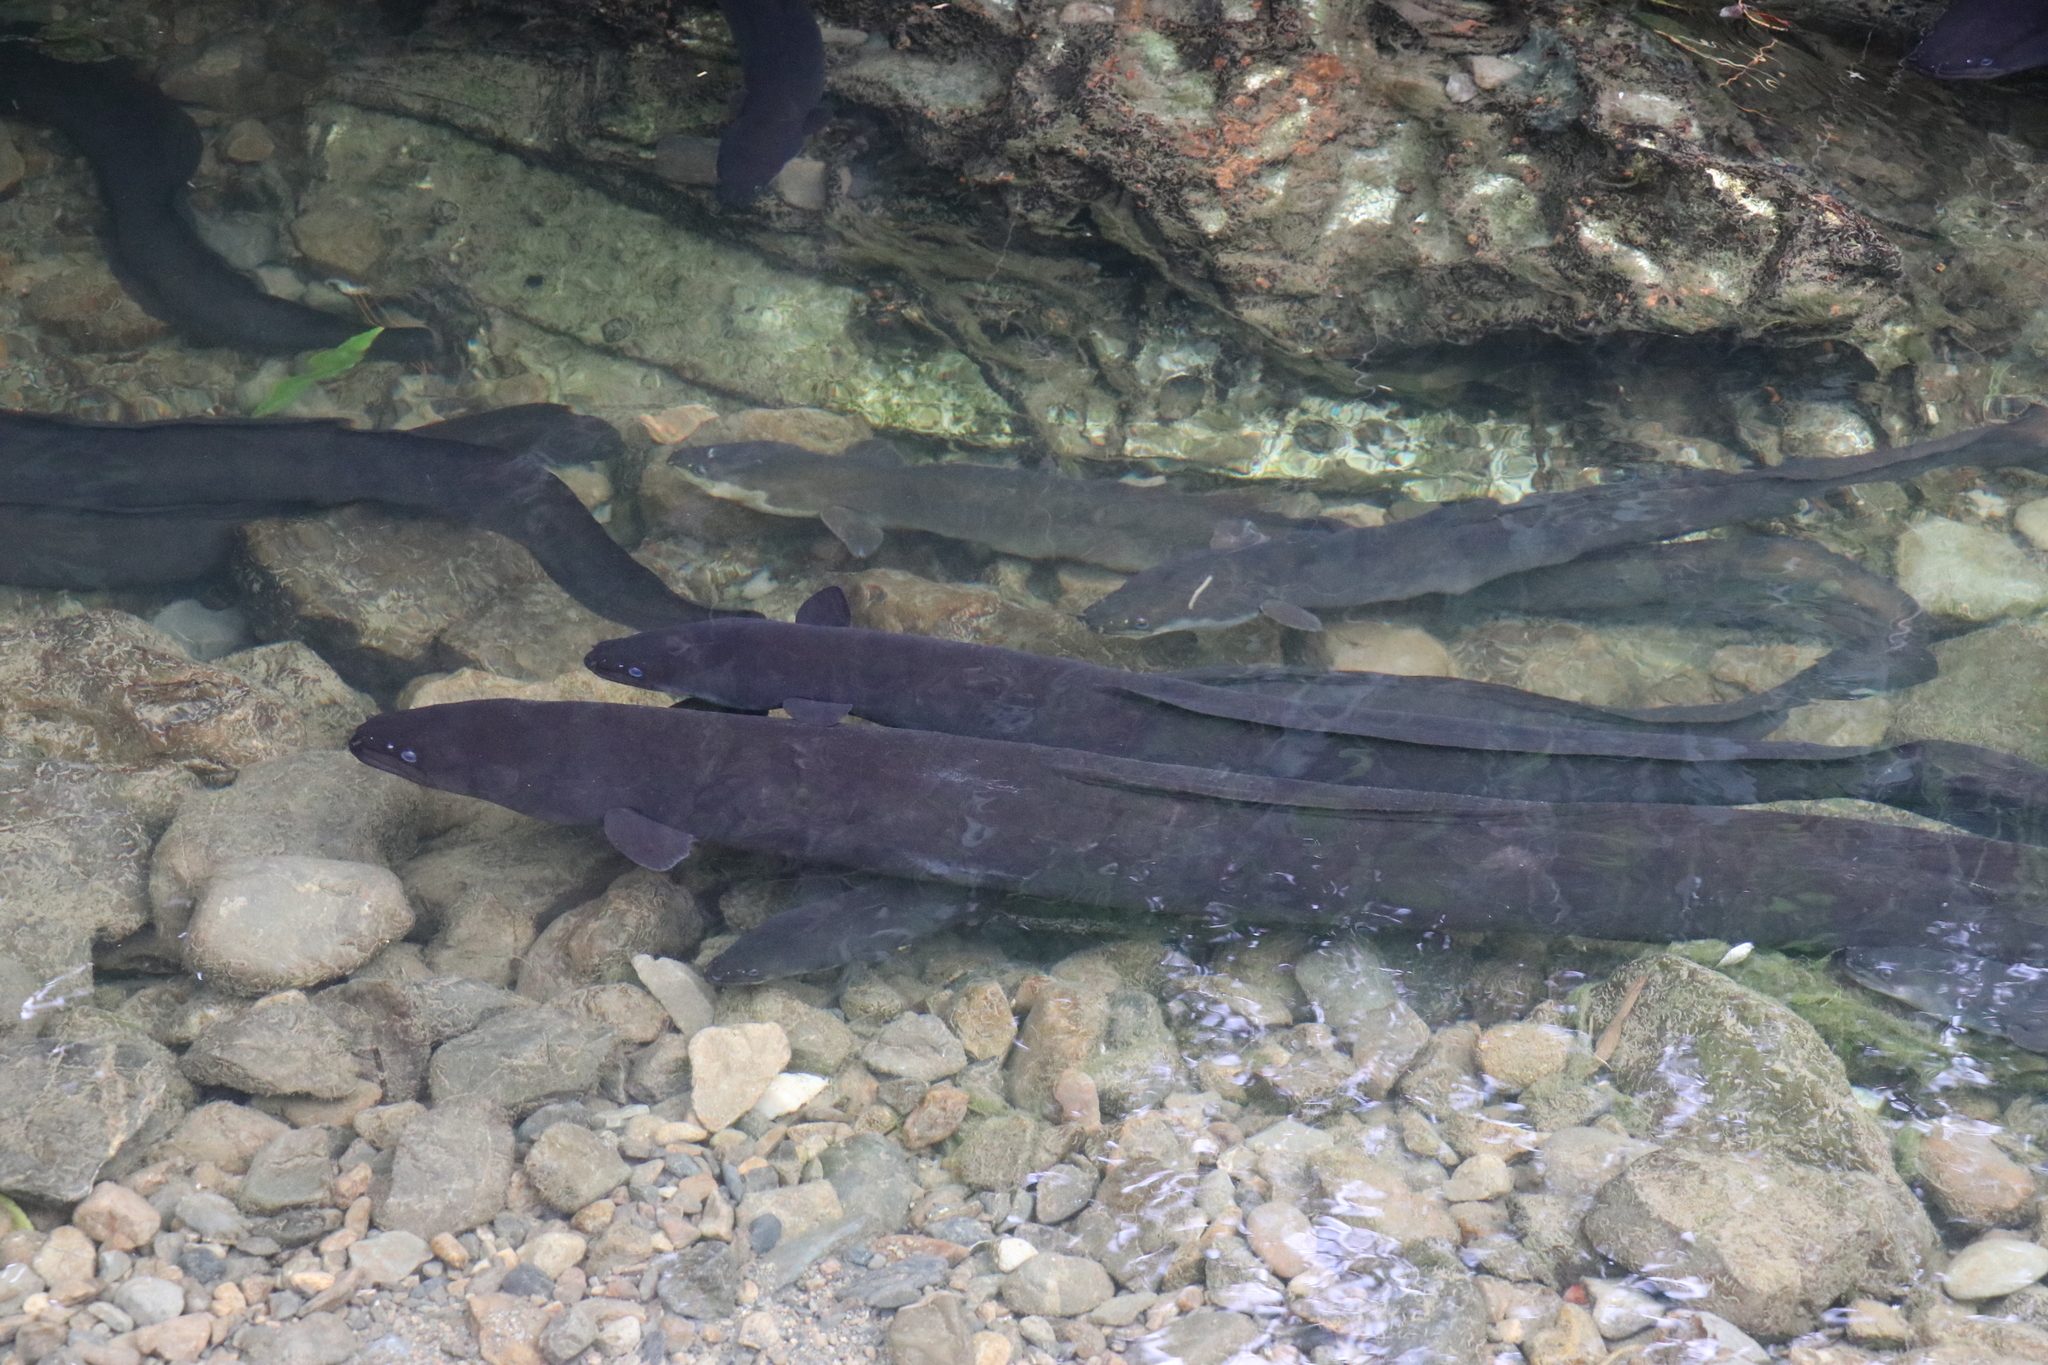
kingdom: Animalia
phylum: Chordata
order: Anguilliformes
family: Anguillidae
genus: Anguilla
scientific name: Anguilla dieffenbachii
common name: New zealand longfin eel
